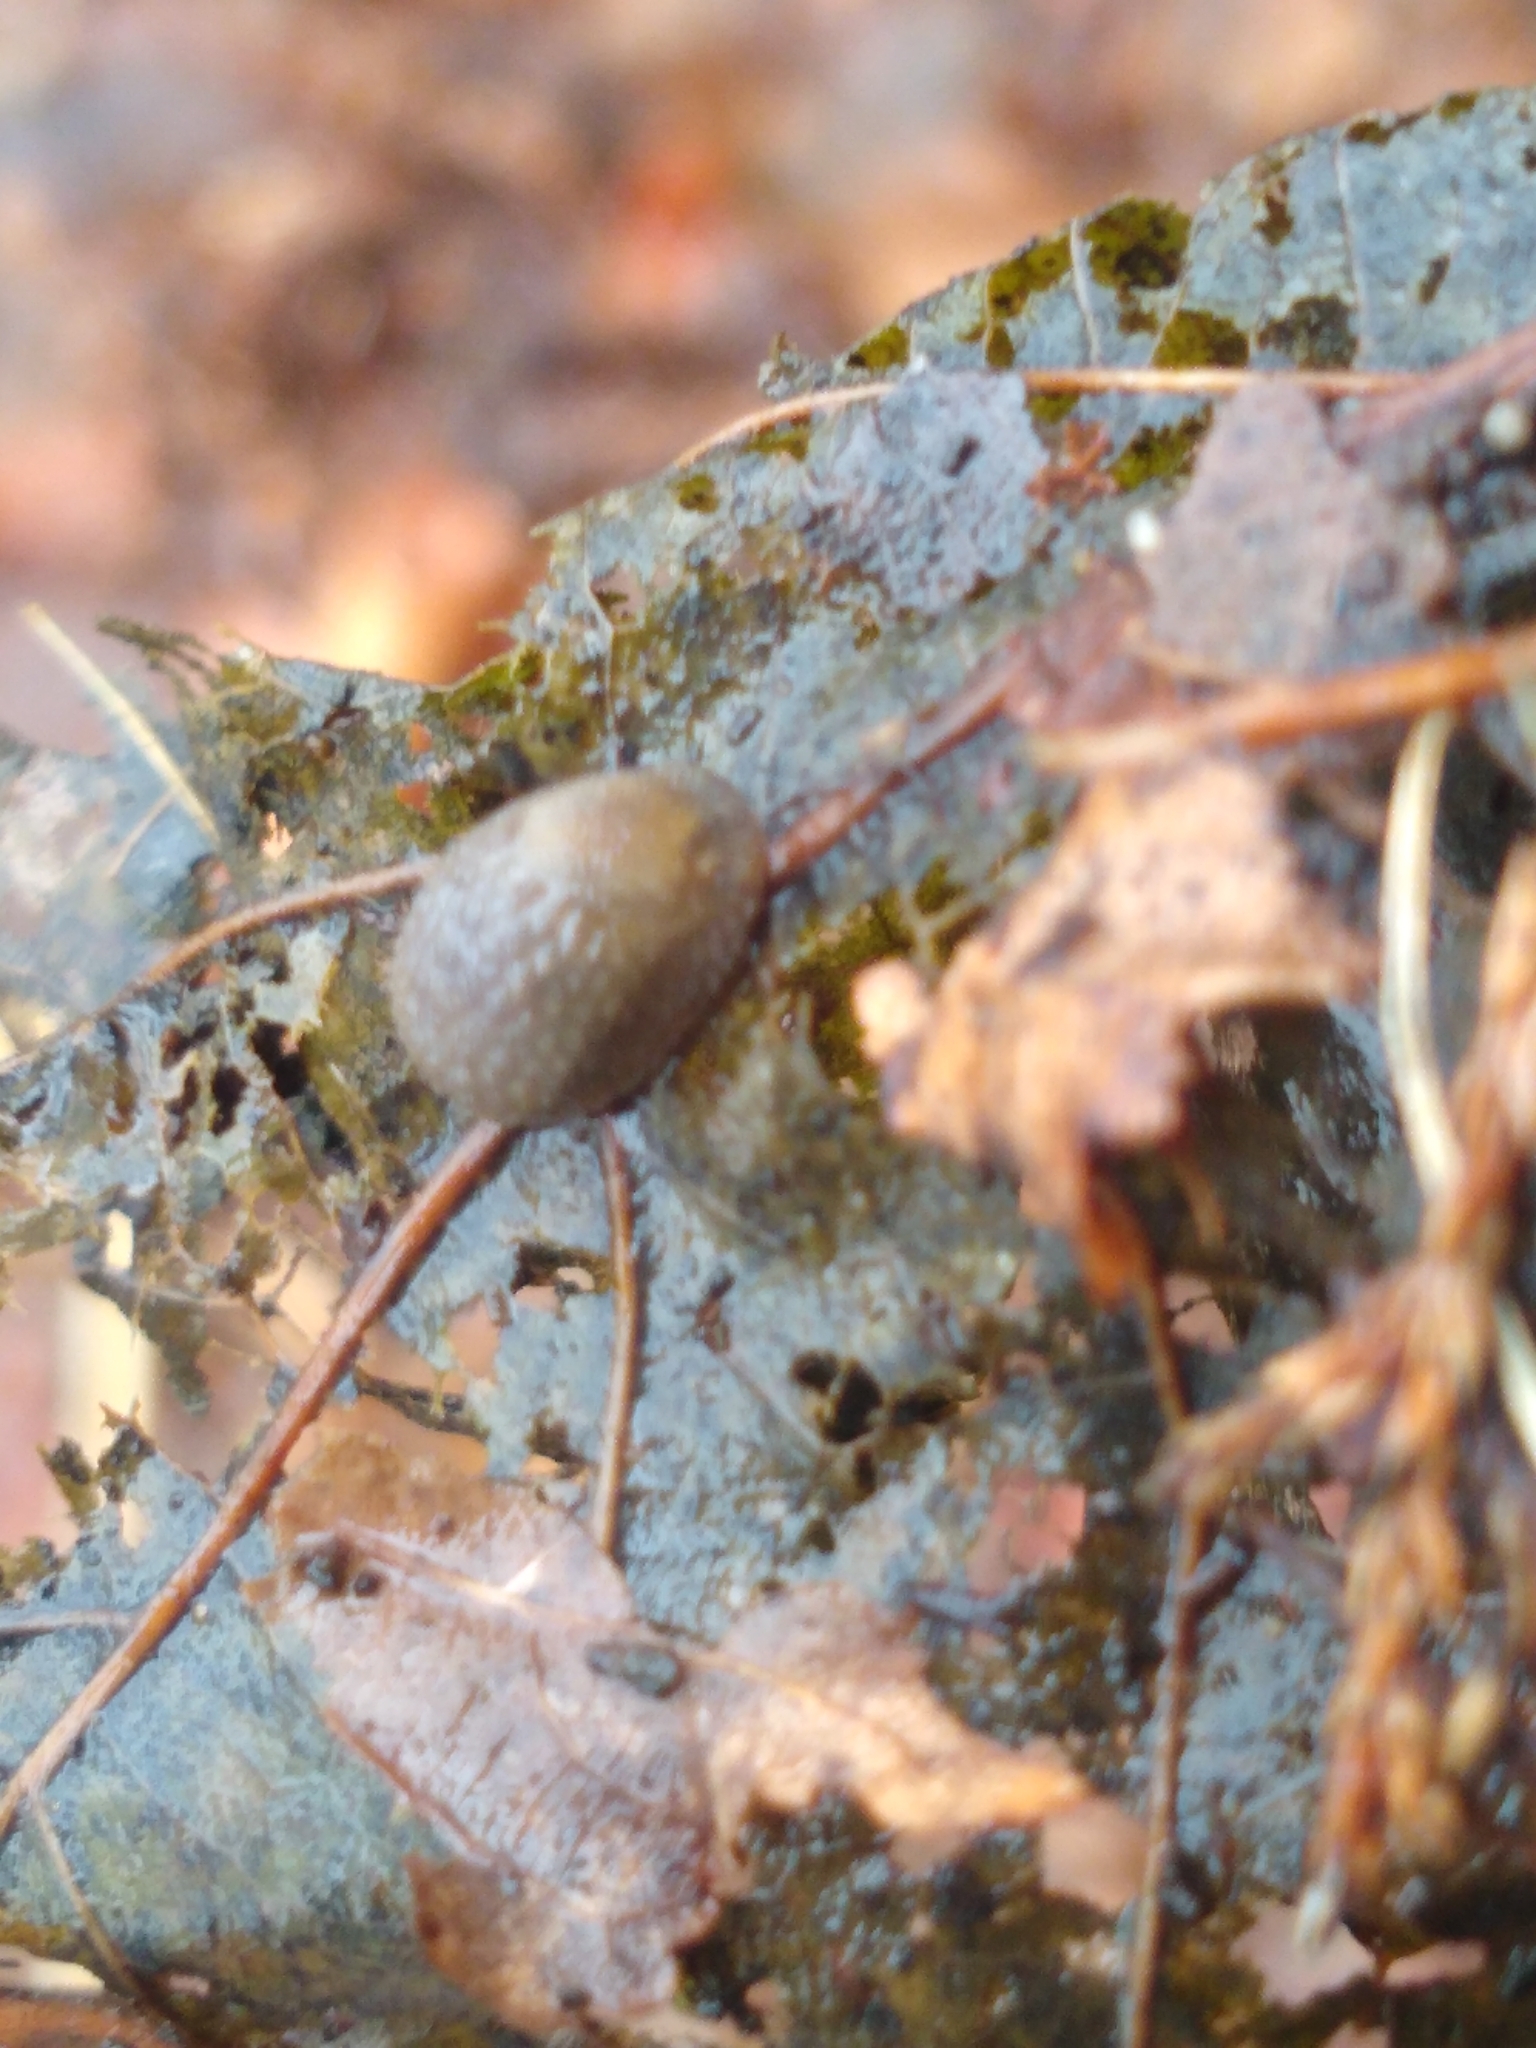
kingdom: Animalia
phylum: Mollusca
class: Gastropoda
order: Stylommatophora
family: Arionidae
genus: Arion
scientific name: Arion intermedius
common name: Hedgehog slug
